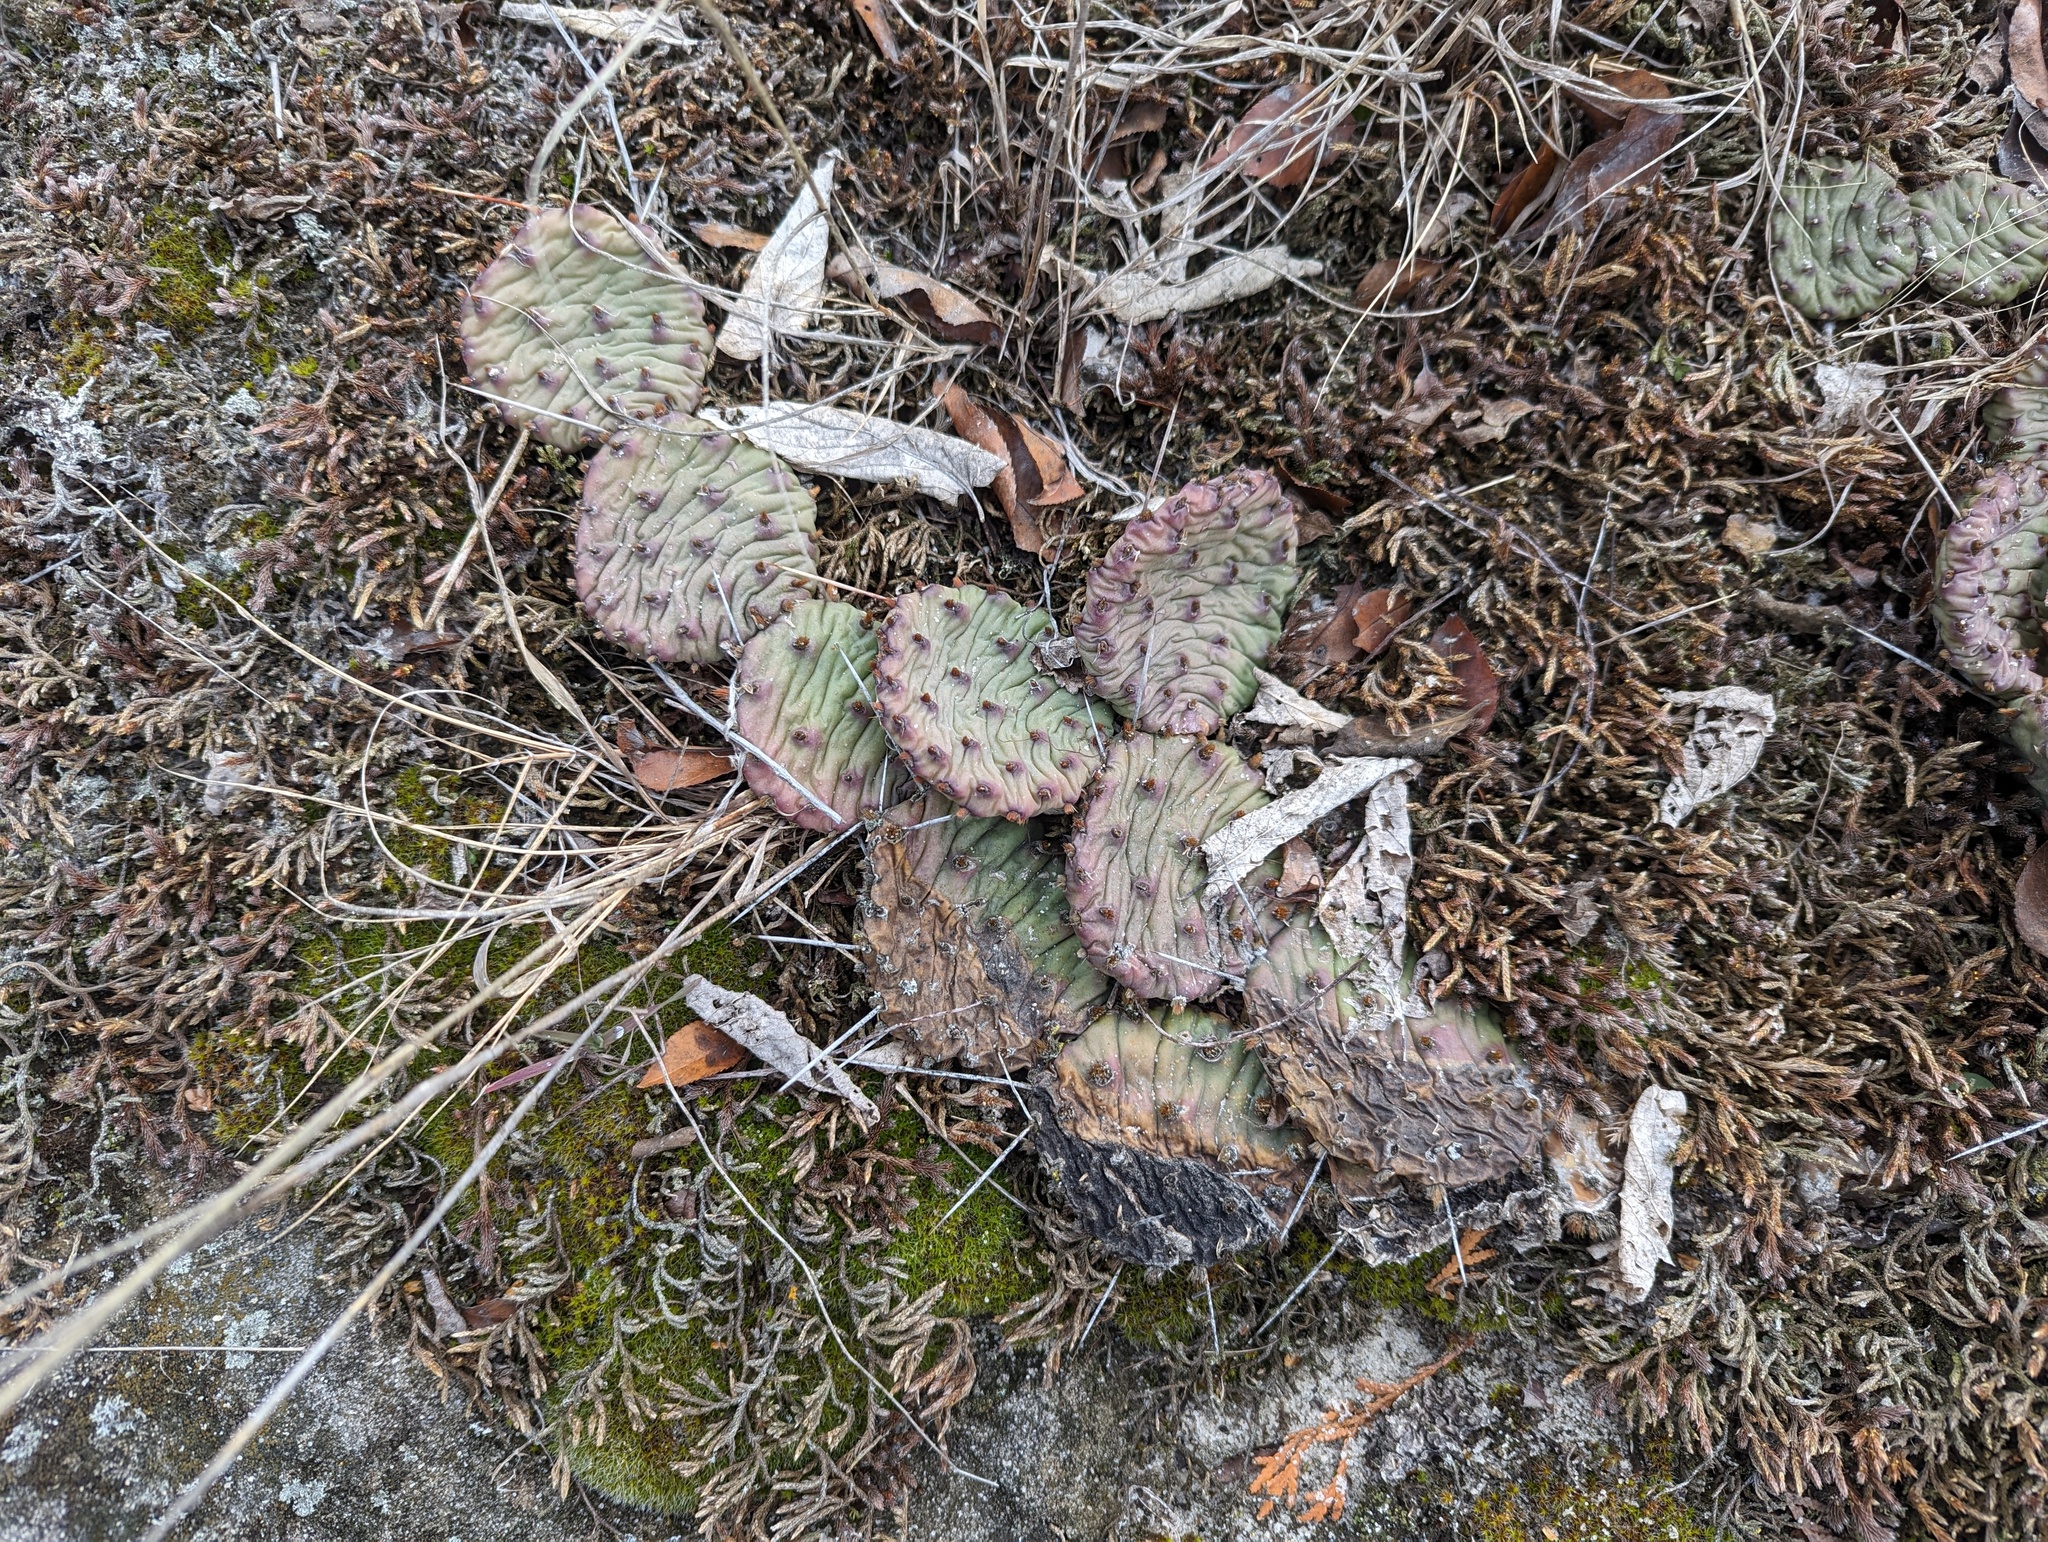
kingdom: Plantae
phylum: Tracheophyta
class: Magnoliopsida
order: Caryophyllales
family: Cactaceae
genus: Opuntia
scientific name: Opuntia humifusa
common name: Eastern prickly-pear
